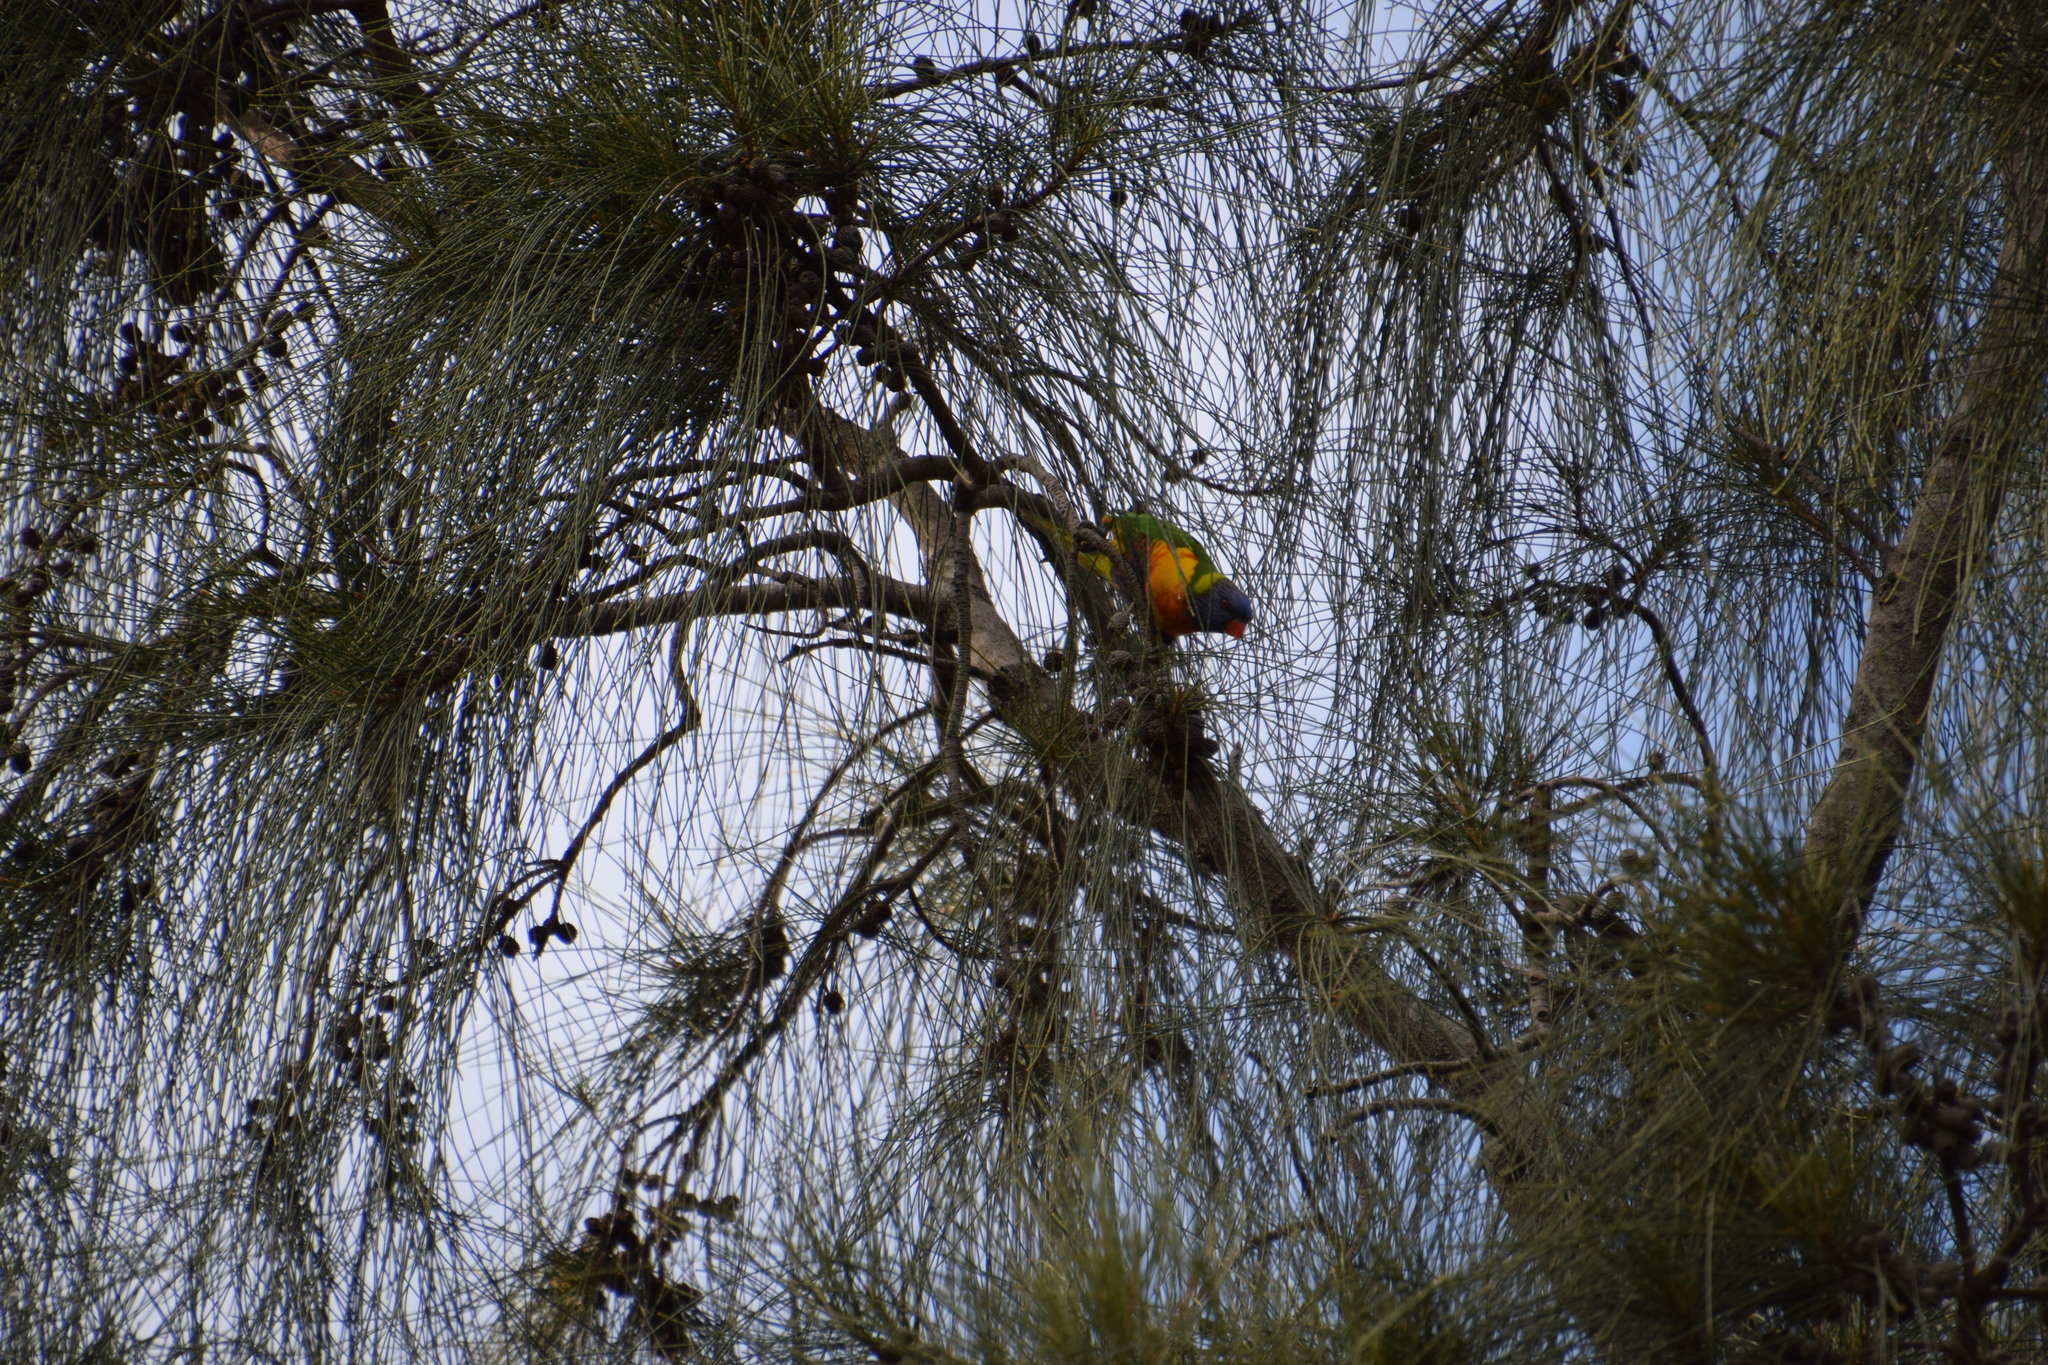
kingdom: Animalia
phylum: Chordata
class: Aves
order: Psittaciformes
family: Psittacidae
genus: Trichoglossus
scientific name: Trichoglossus haematodus
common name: Coconut lorikeet
